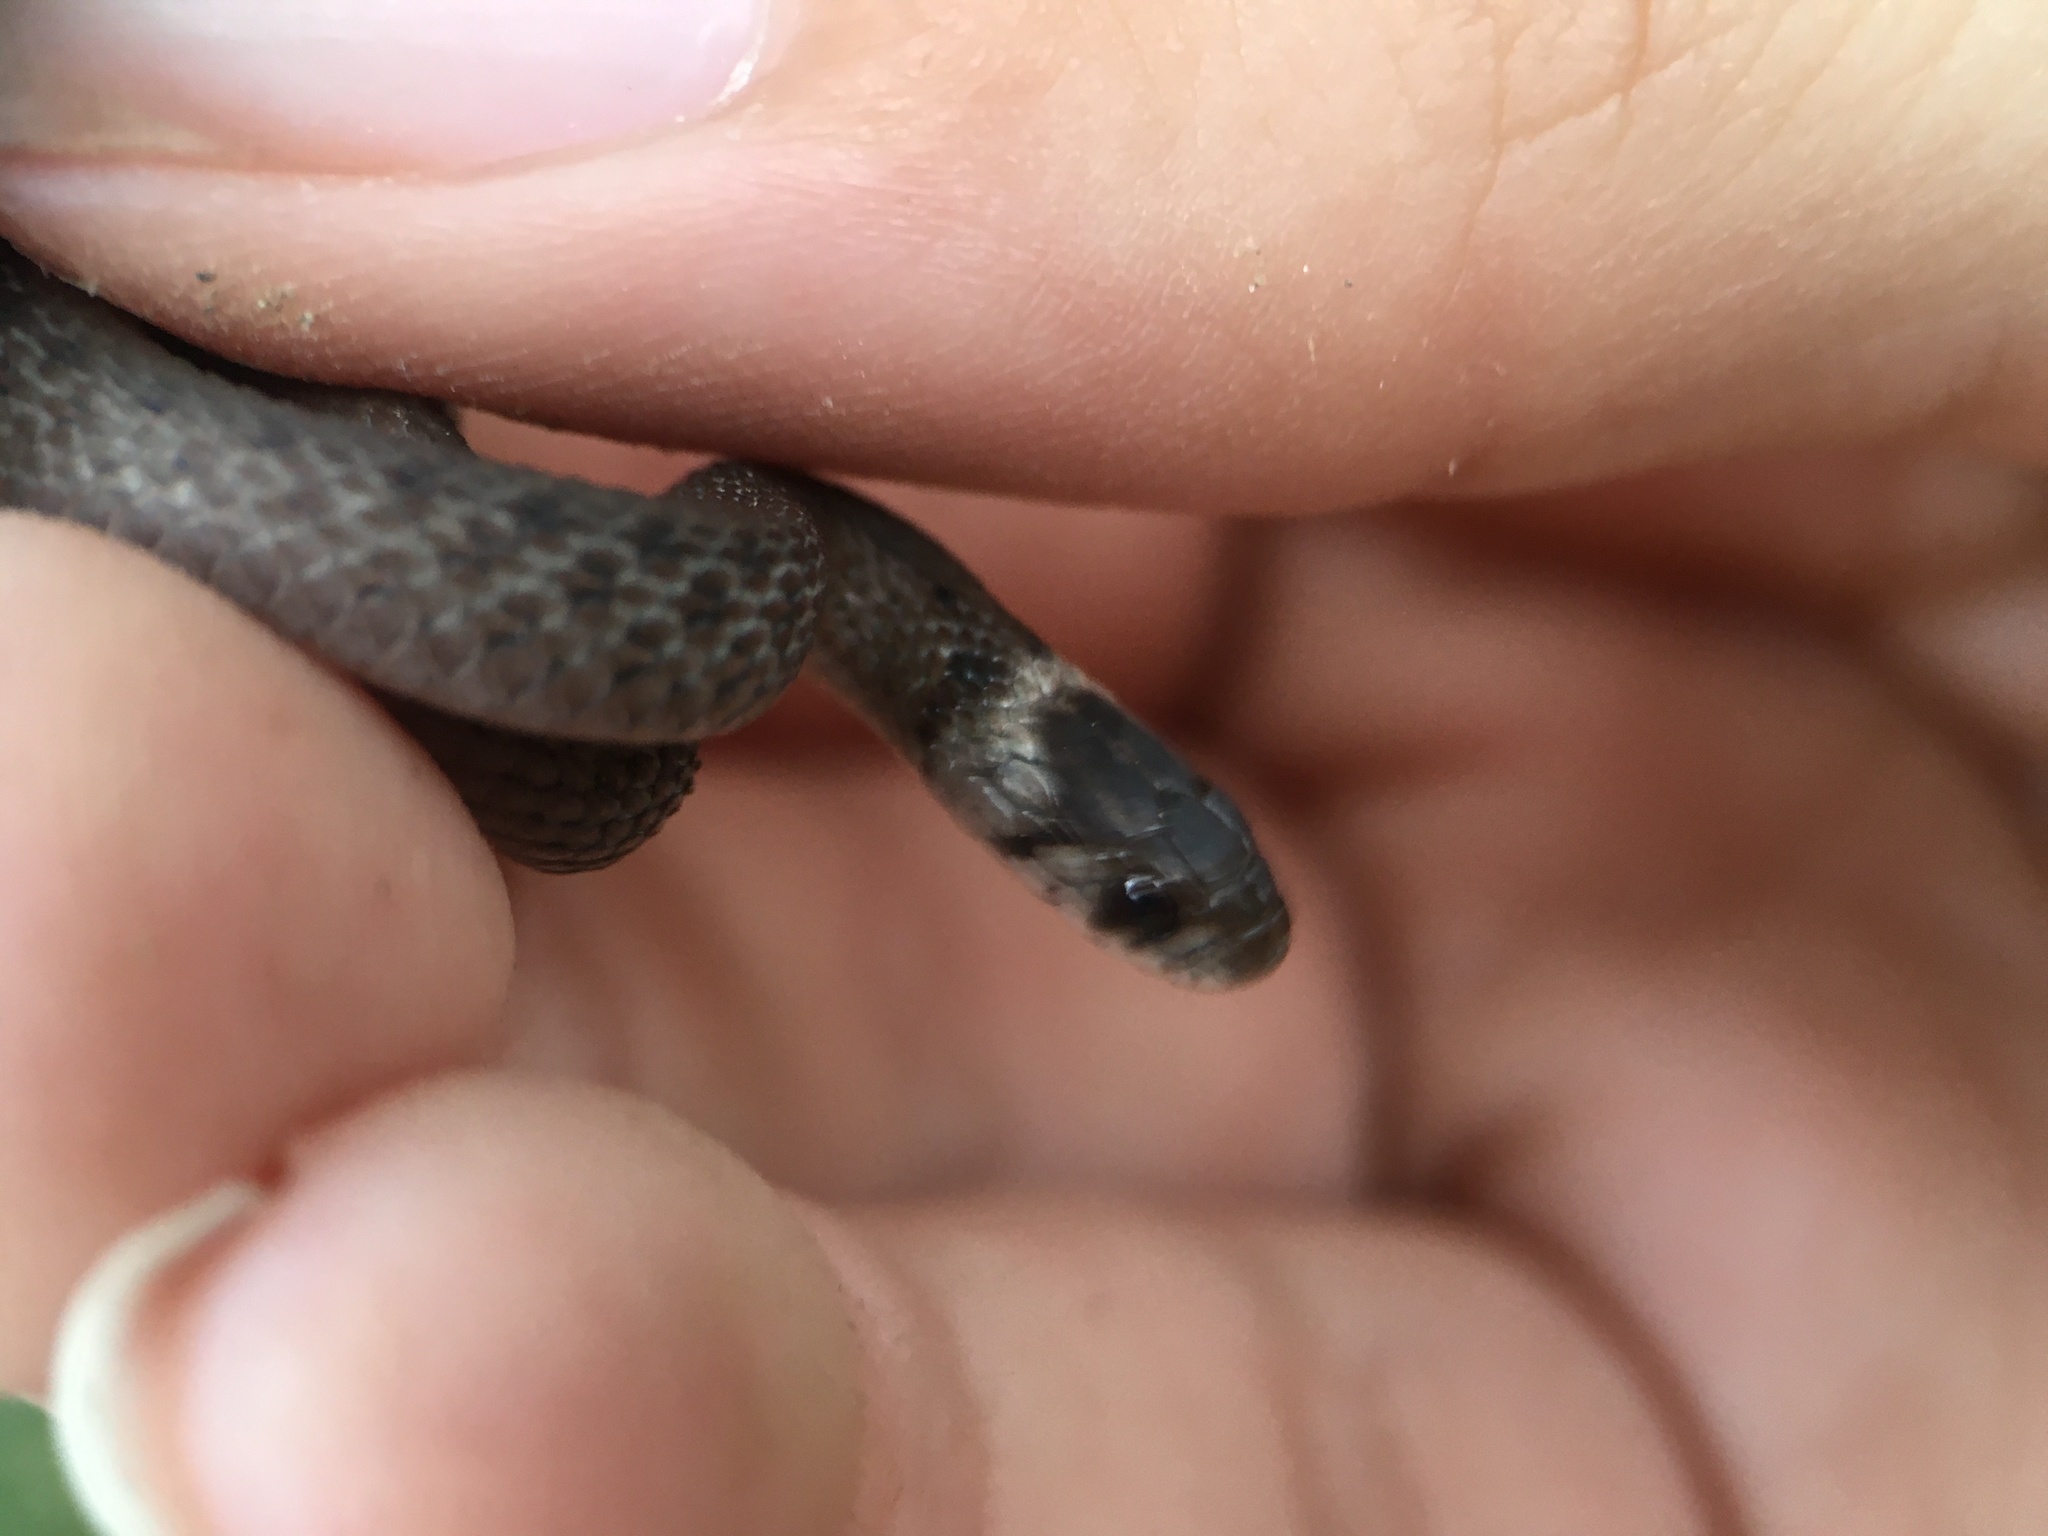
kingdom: Animalia
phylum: Chordata
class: Squamata
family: Colubridae
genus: Storeria
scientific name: Storeria dekayi
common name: (dekay’s) brown snake
